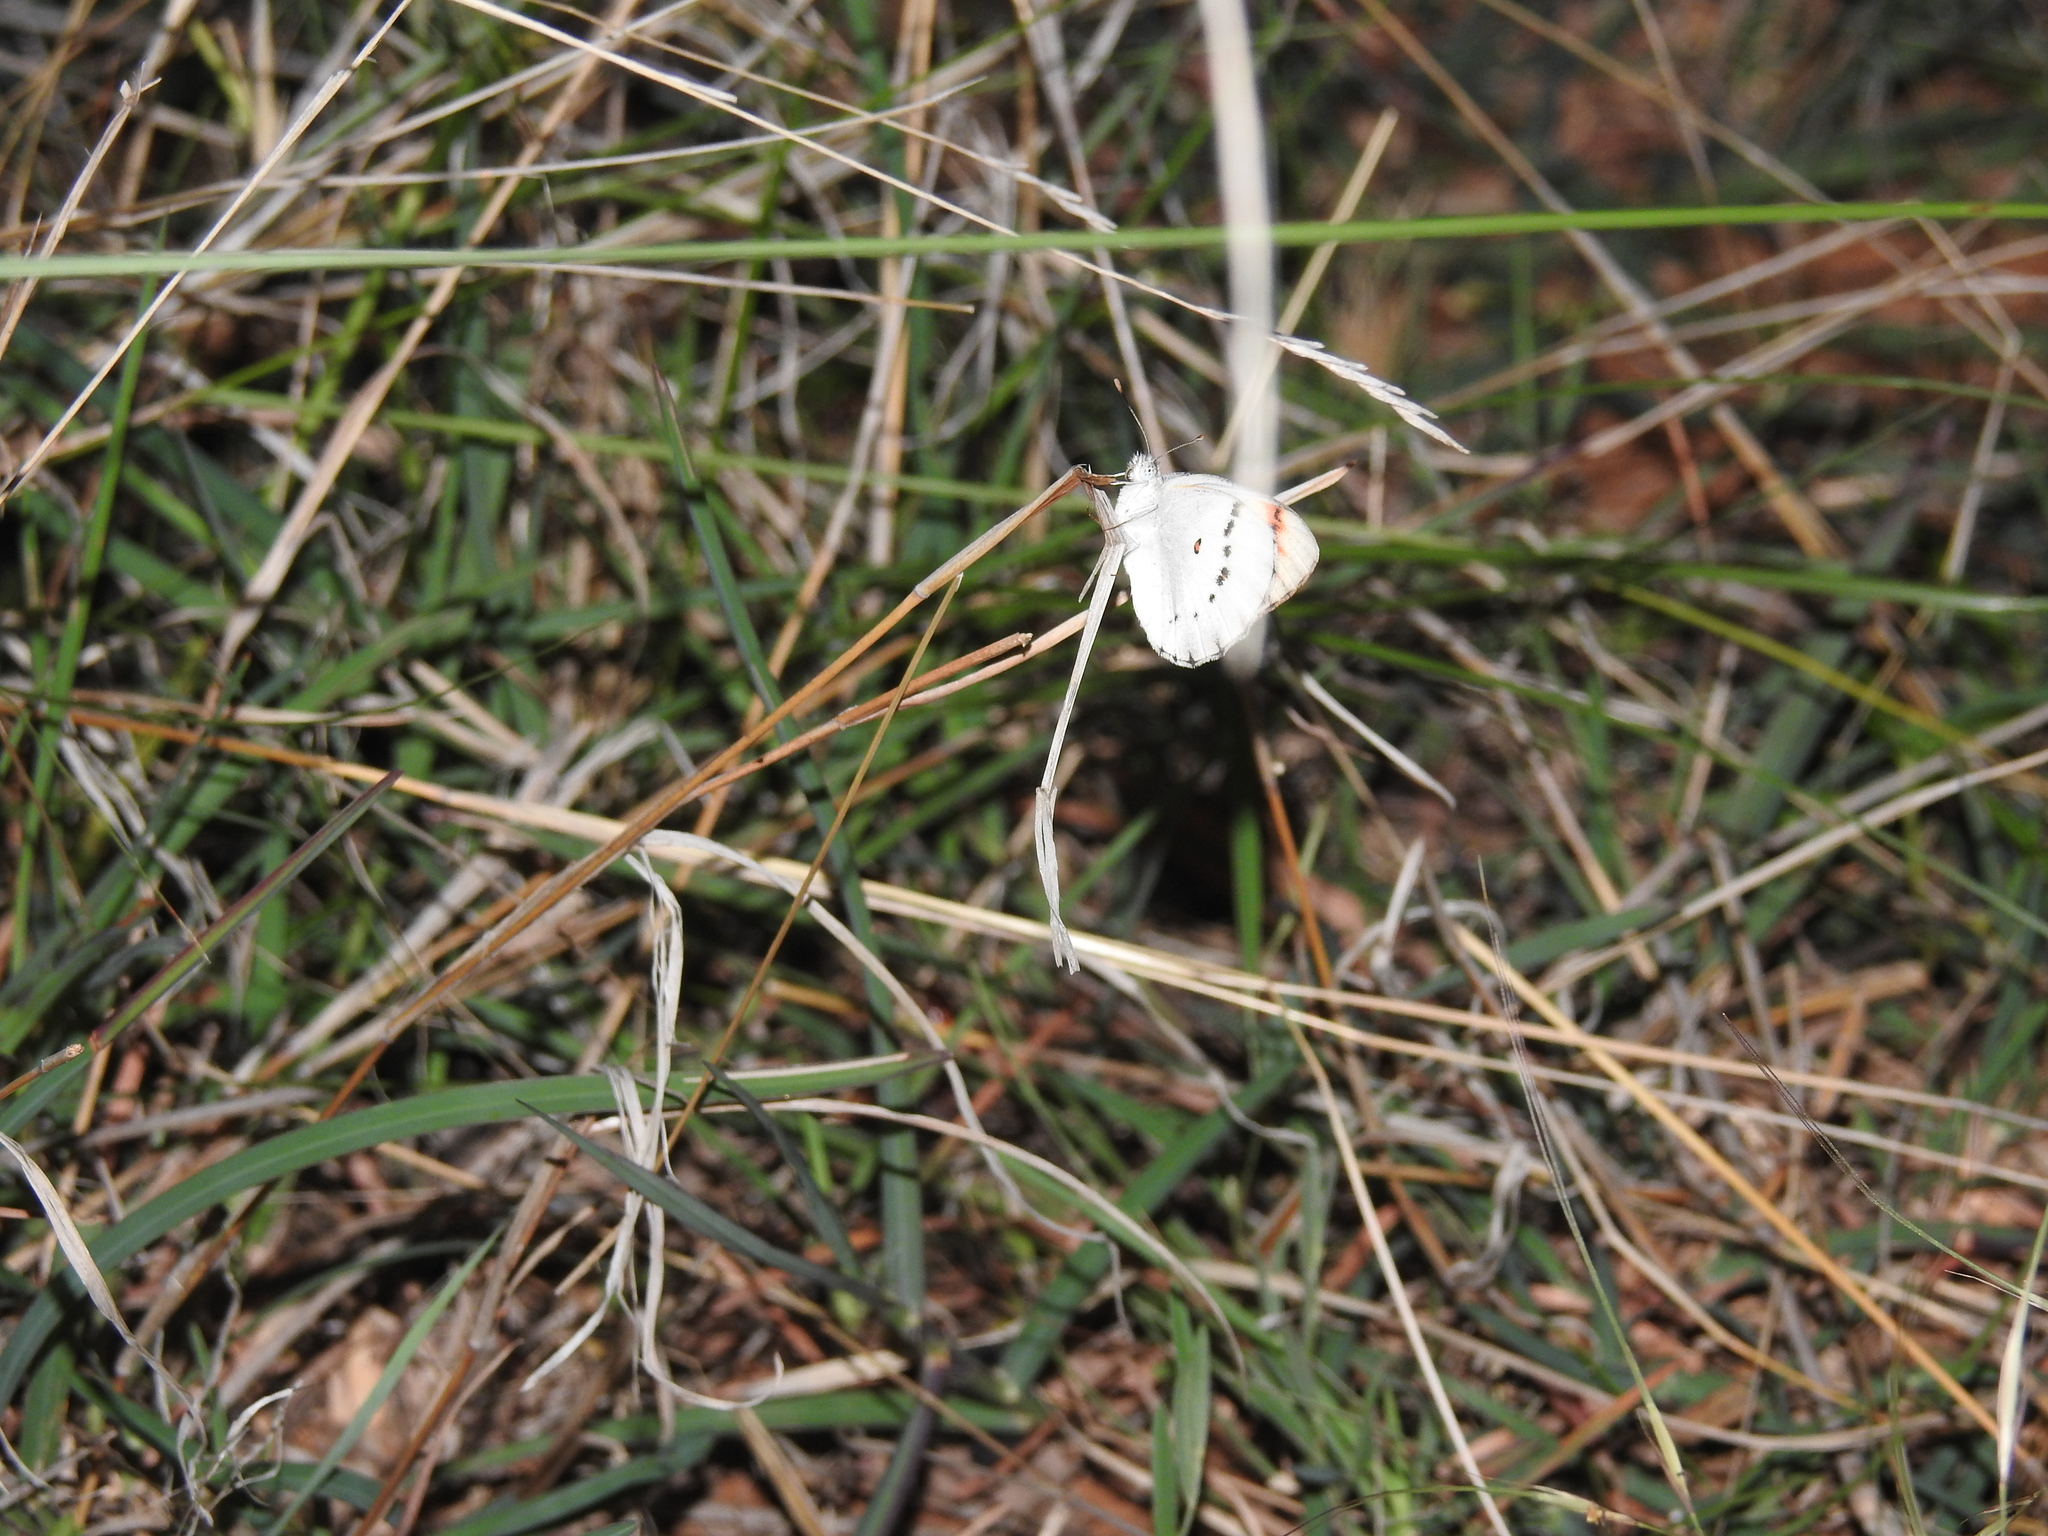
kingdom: Animalia
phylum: Arthropoda
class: Insecta
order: Lepidoptera
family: Pieridae
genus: Colotis
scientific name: Colotis danae
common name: Crimson tip
